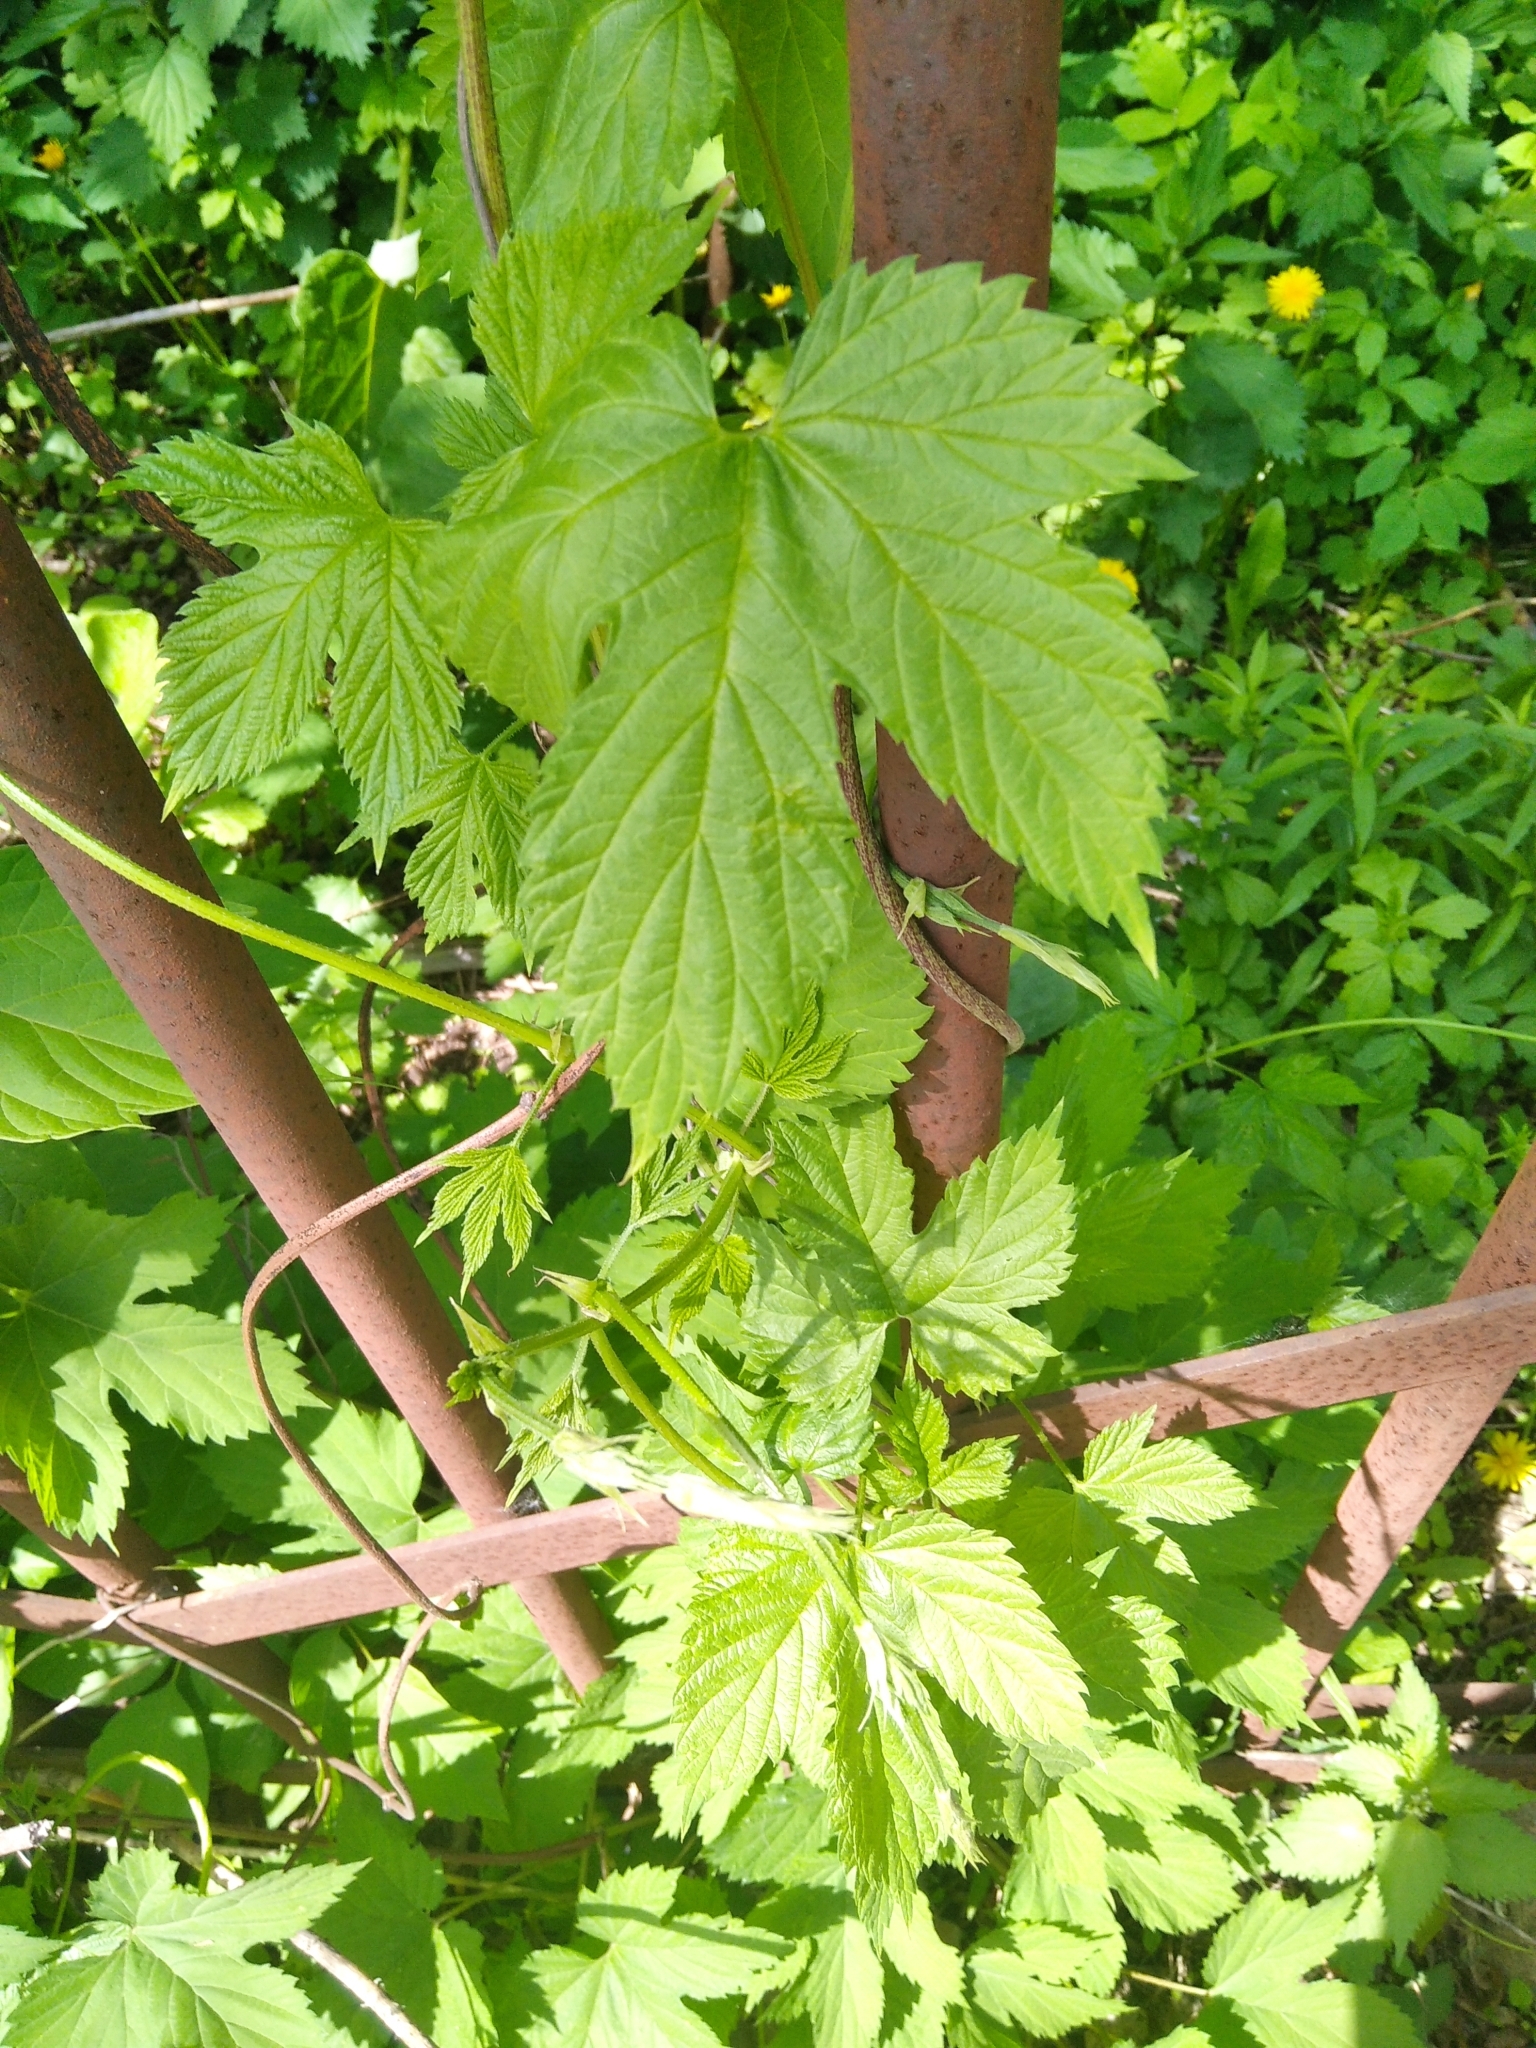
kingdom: Plantae
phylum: Tracheophyta
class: Magnoliopsida
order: Rosales
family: Cannabaceae
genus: Humulus
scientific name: Humulus lupulus
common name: Hop
